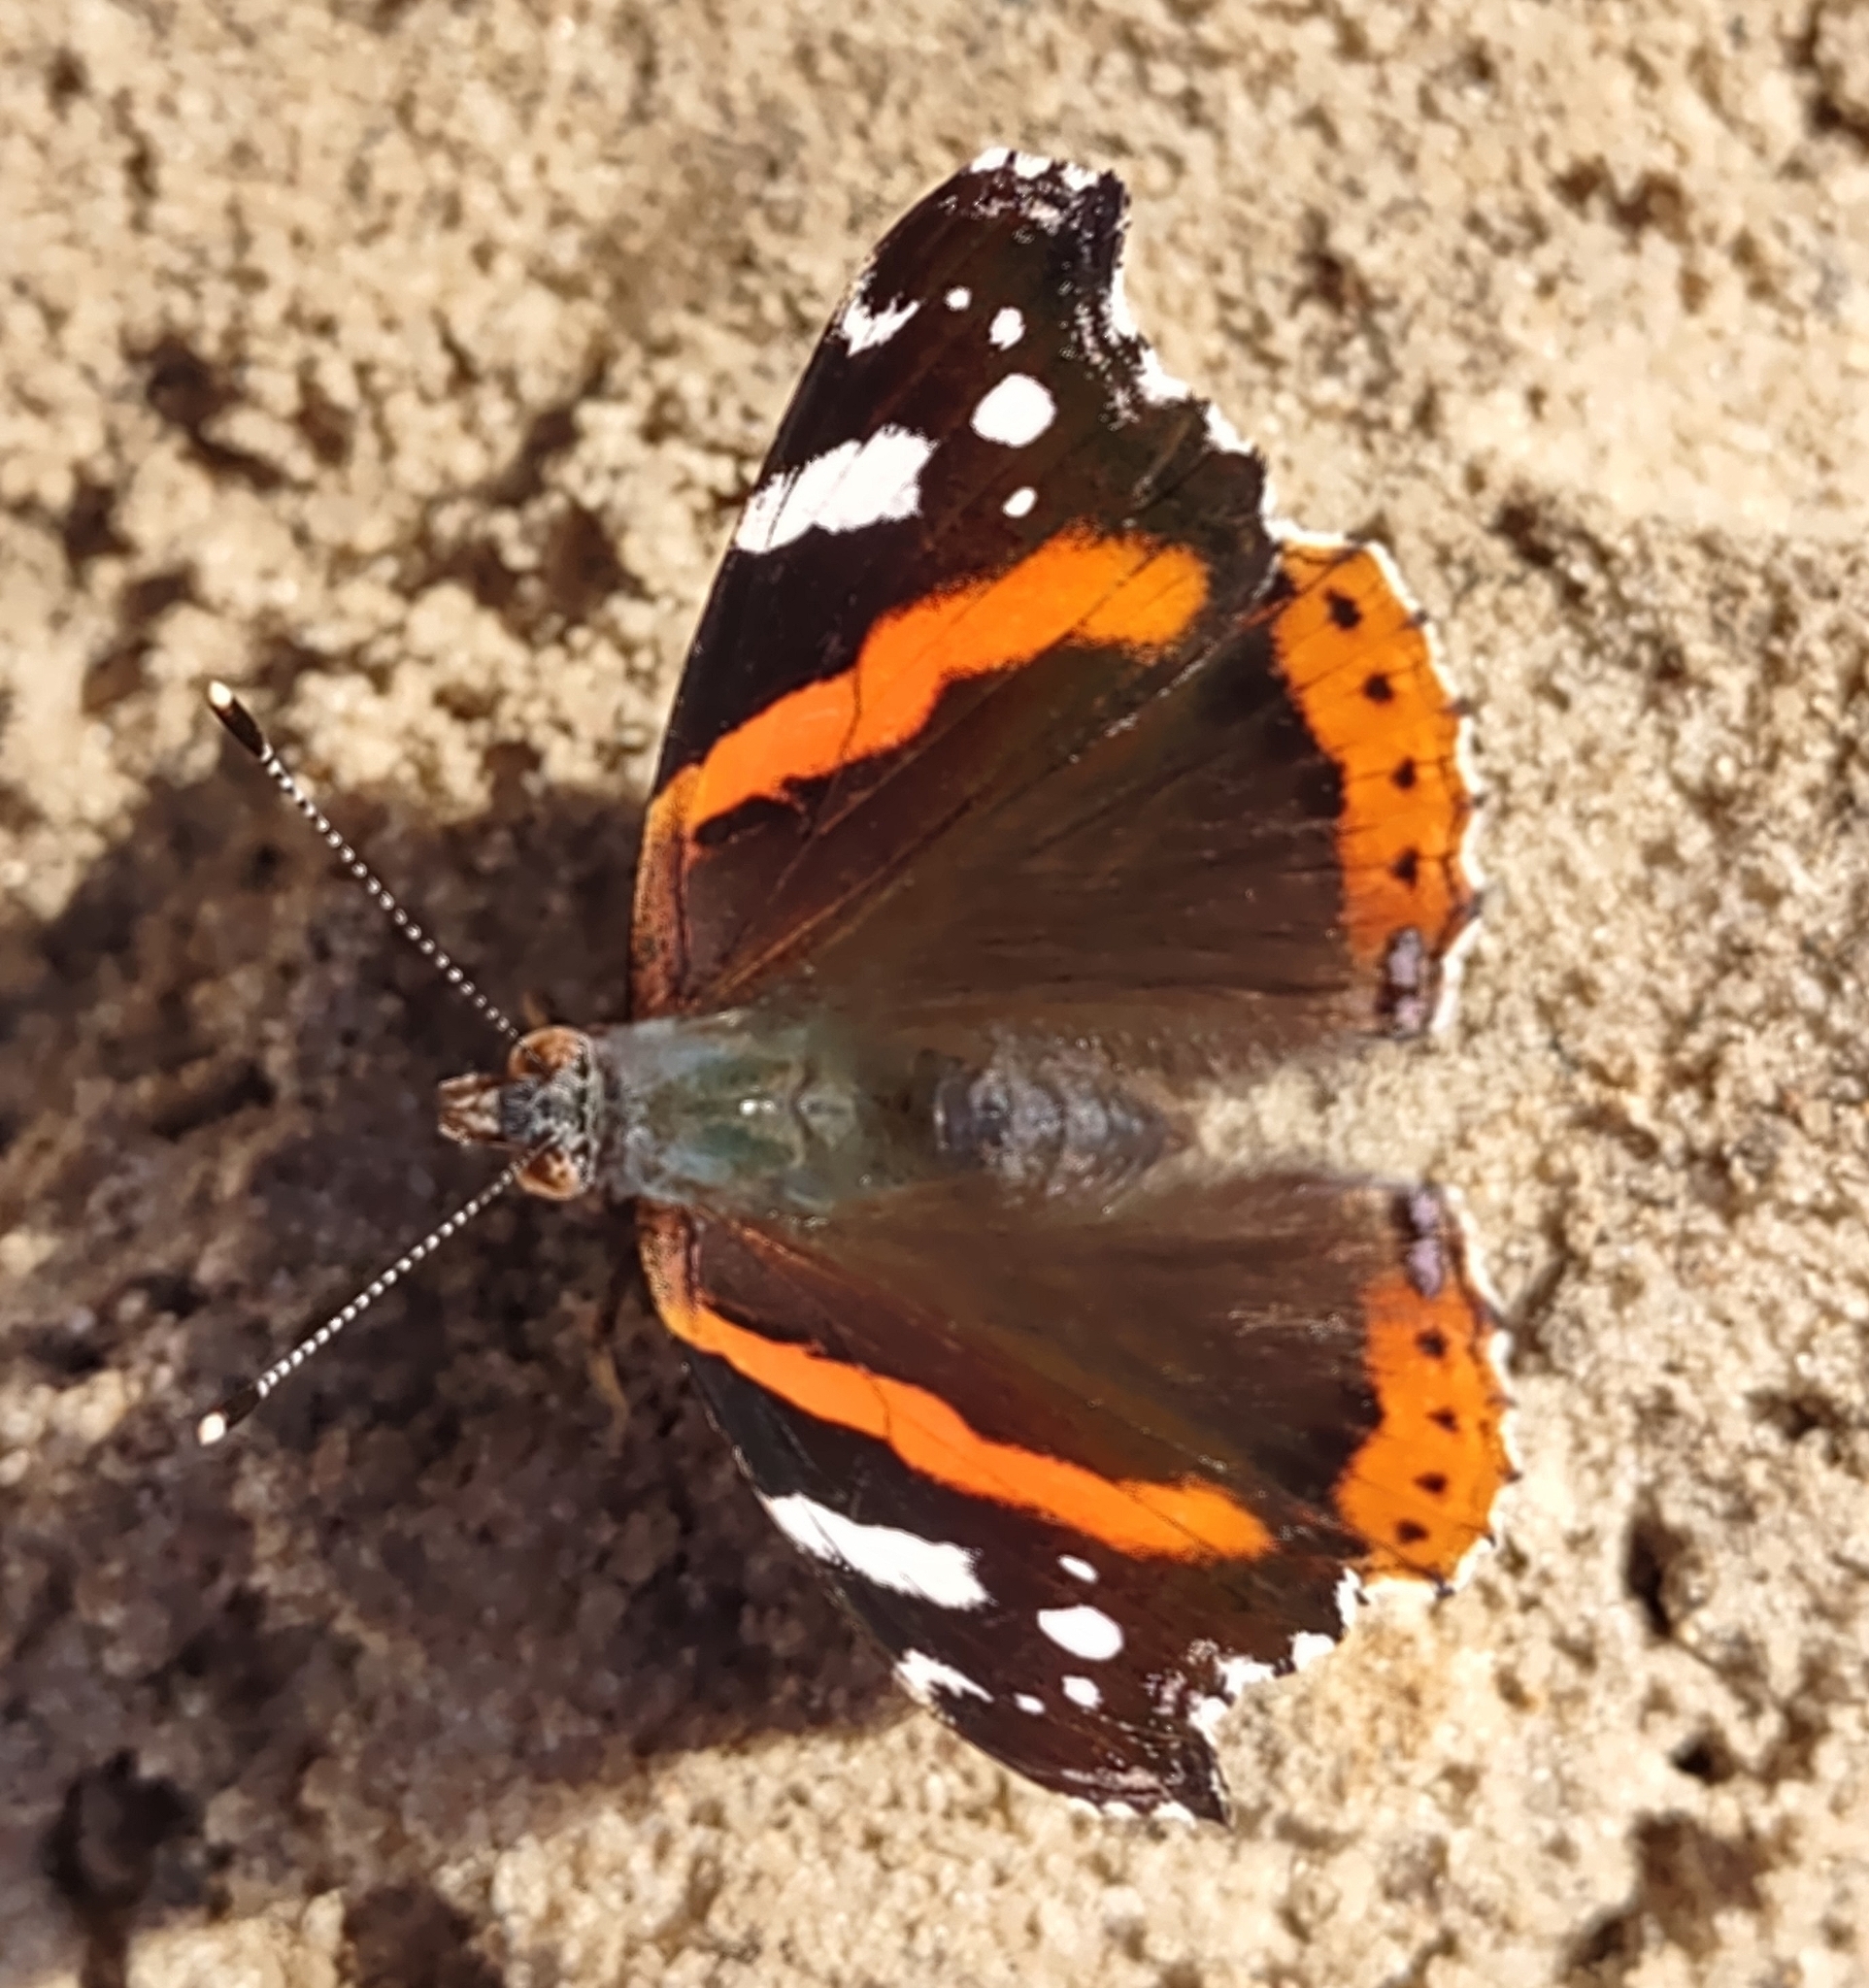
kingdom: Animalia
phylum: Arthropoda
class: Insecta
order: Lepidoptera
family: Nymphalidae
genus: Vanessa
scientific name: Vanessa atalanta
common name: Red admiral
